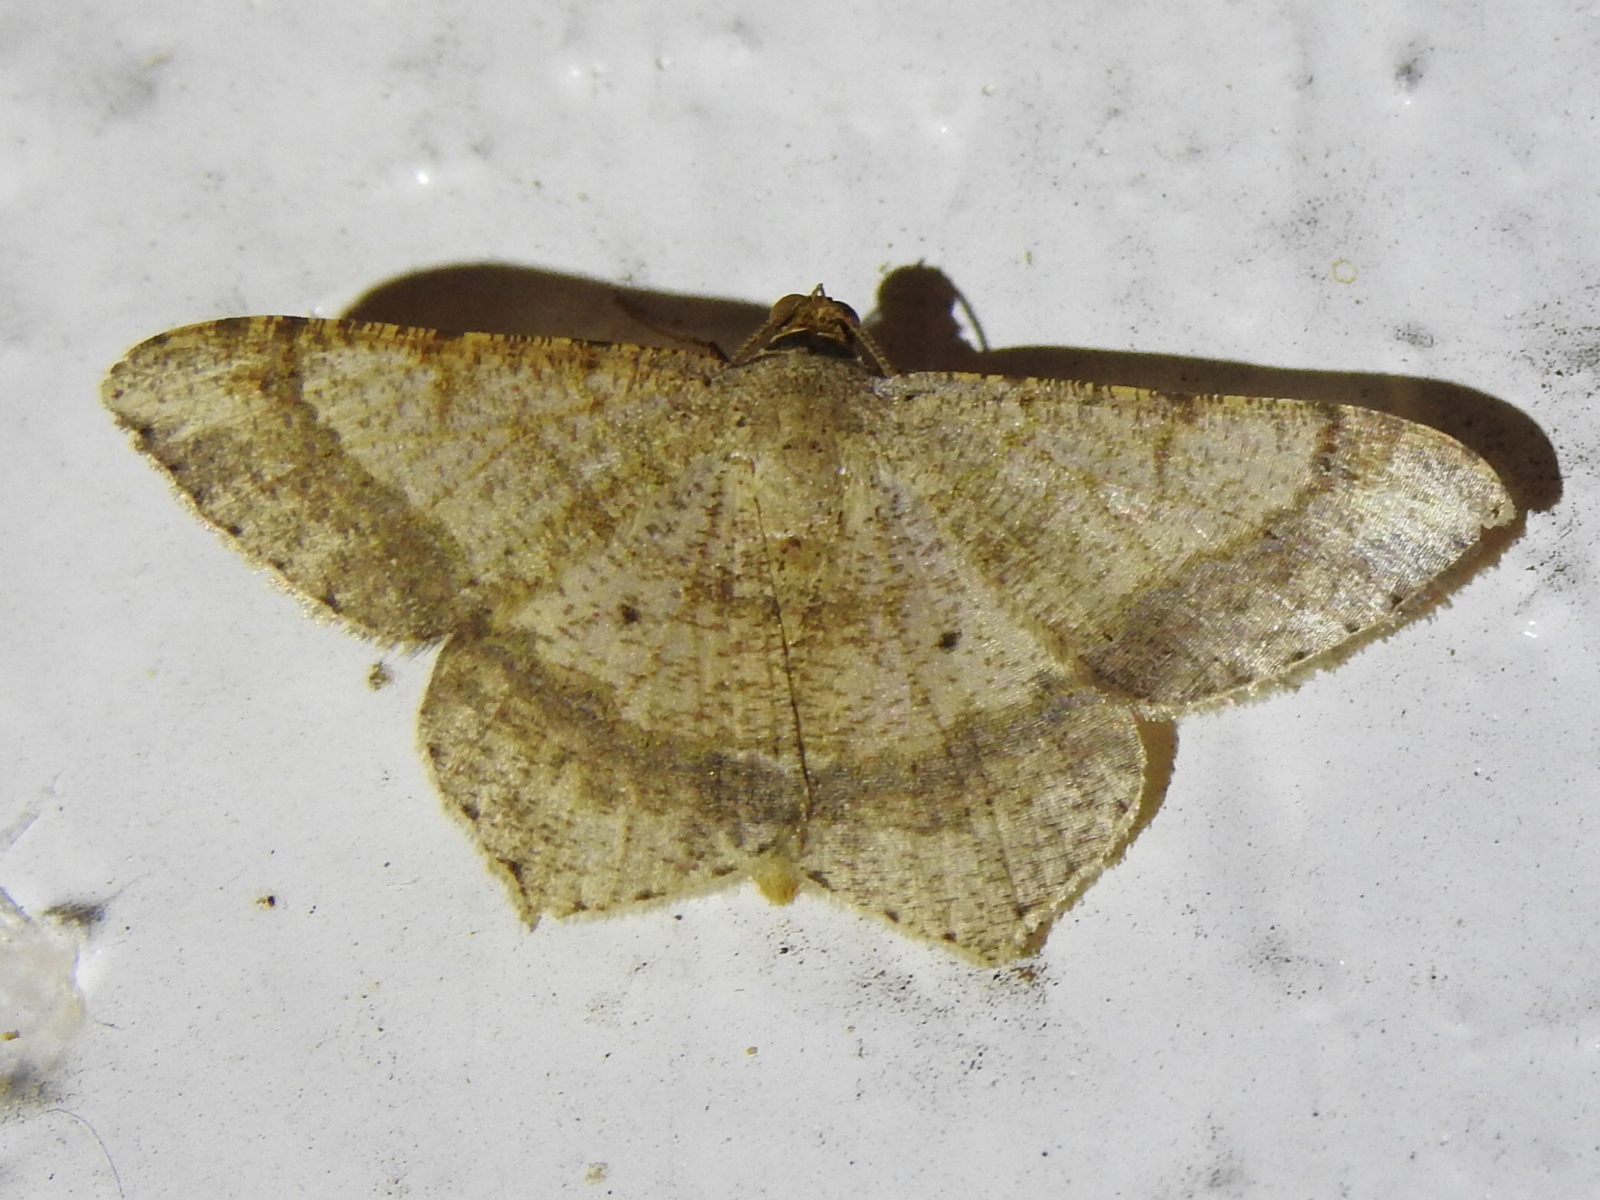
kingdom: Animalia
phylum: Arthropoda
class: Insecta
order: Lepidoptera
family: Geometridae
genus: Macaria
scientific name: Macaria abydata
